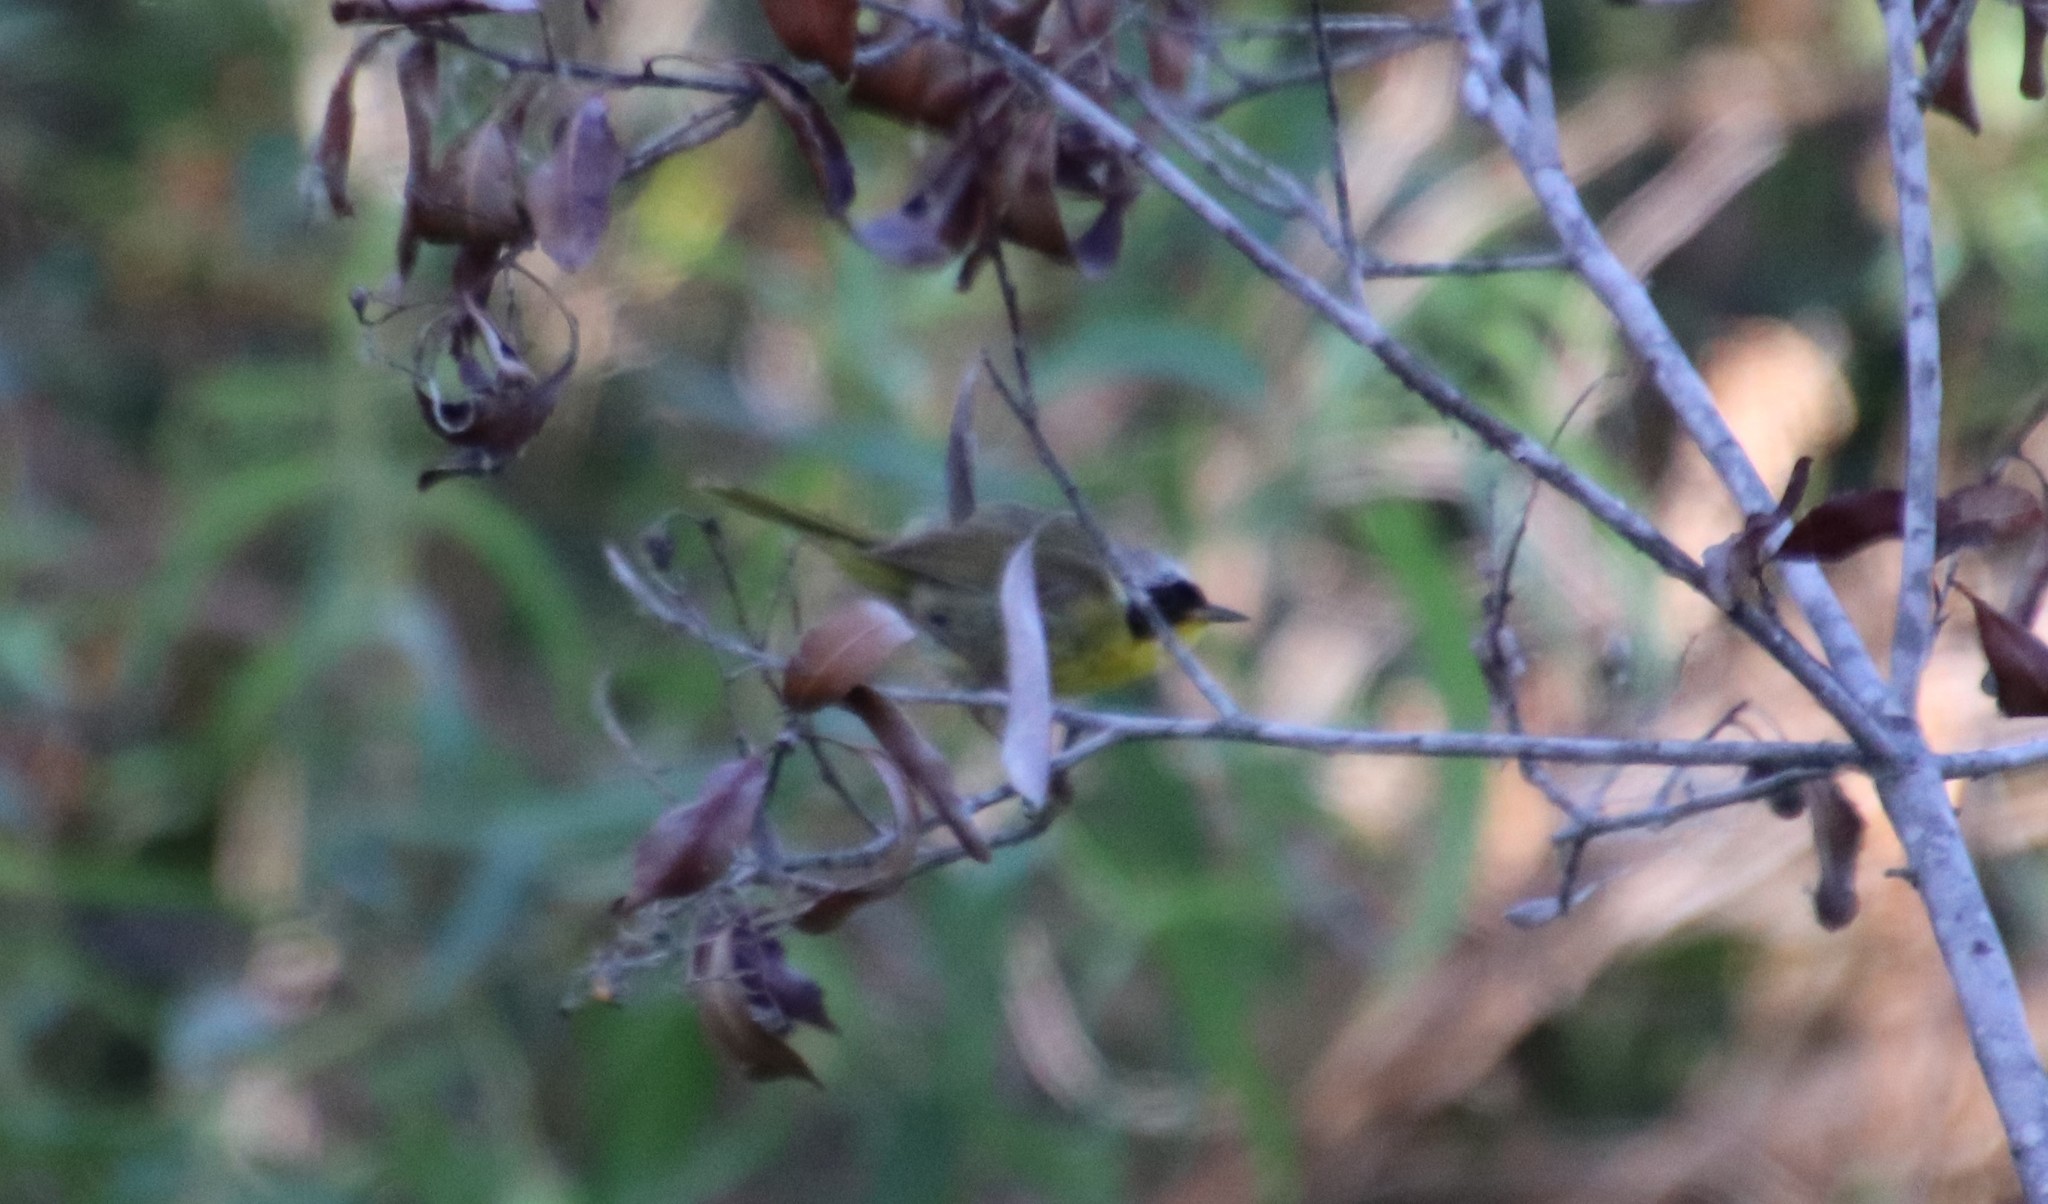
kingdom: Animalia
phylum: Chordata
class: Aves
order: Passeriformes
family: Parulidae
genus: Geothlypis
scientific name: Geothlypis trichas
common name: Common yellowthroat
